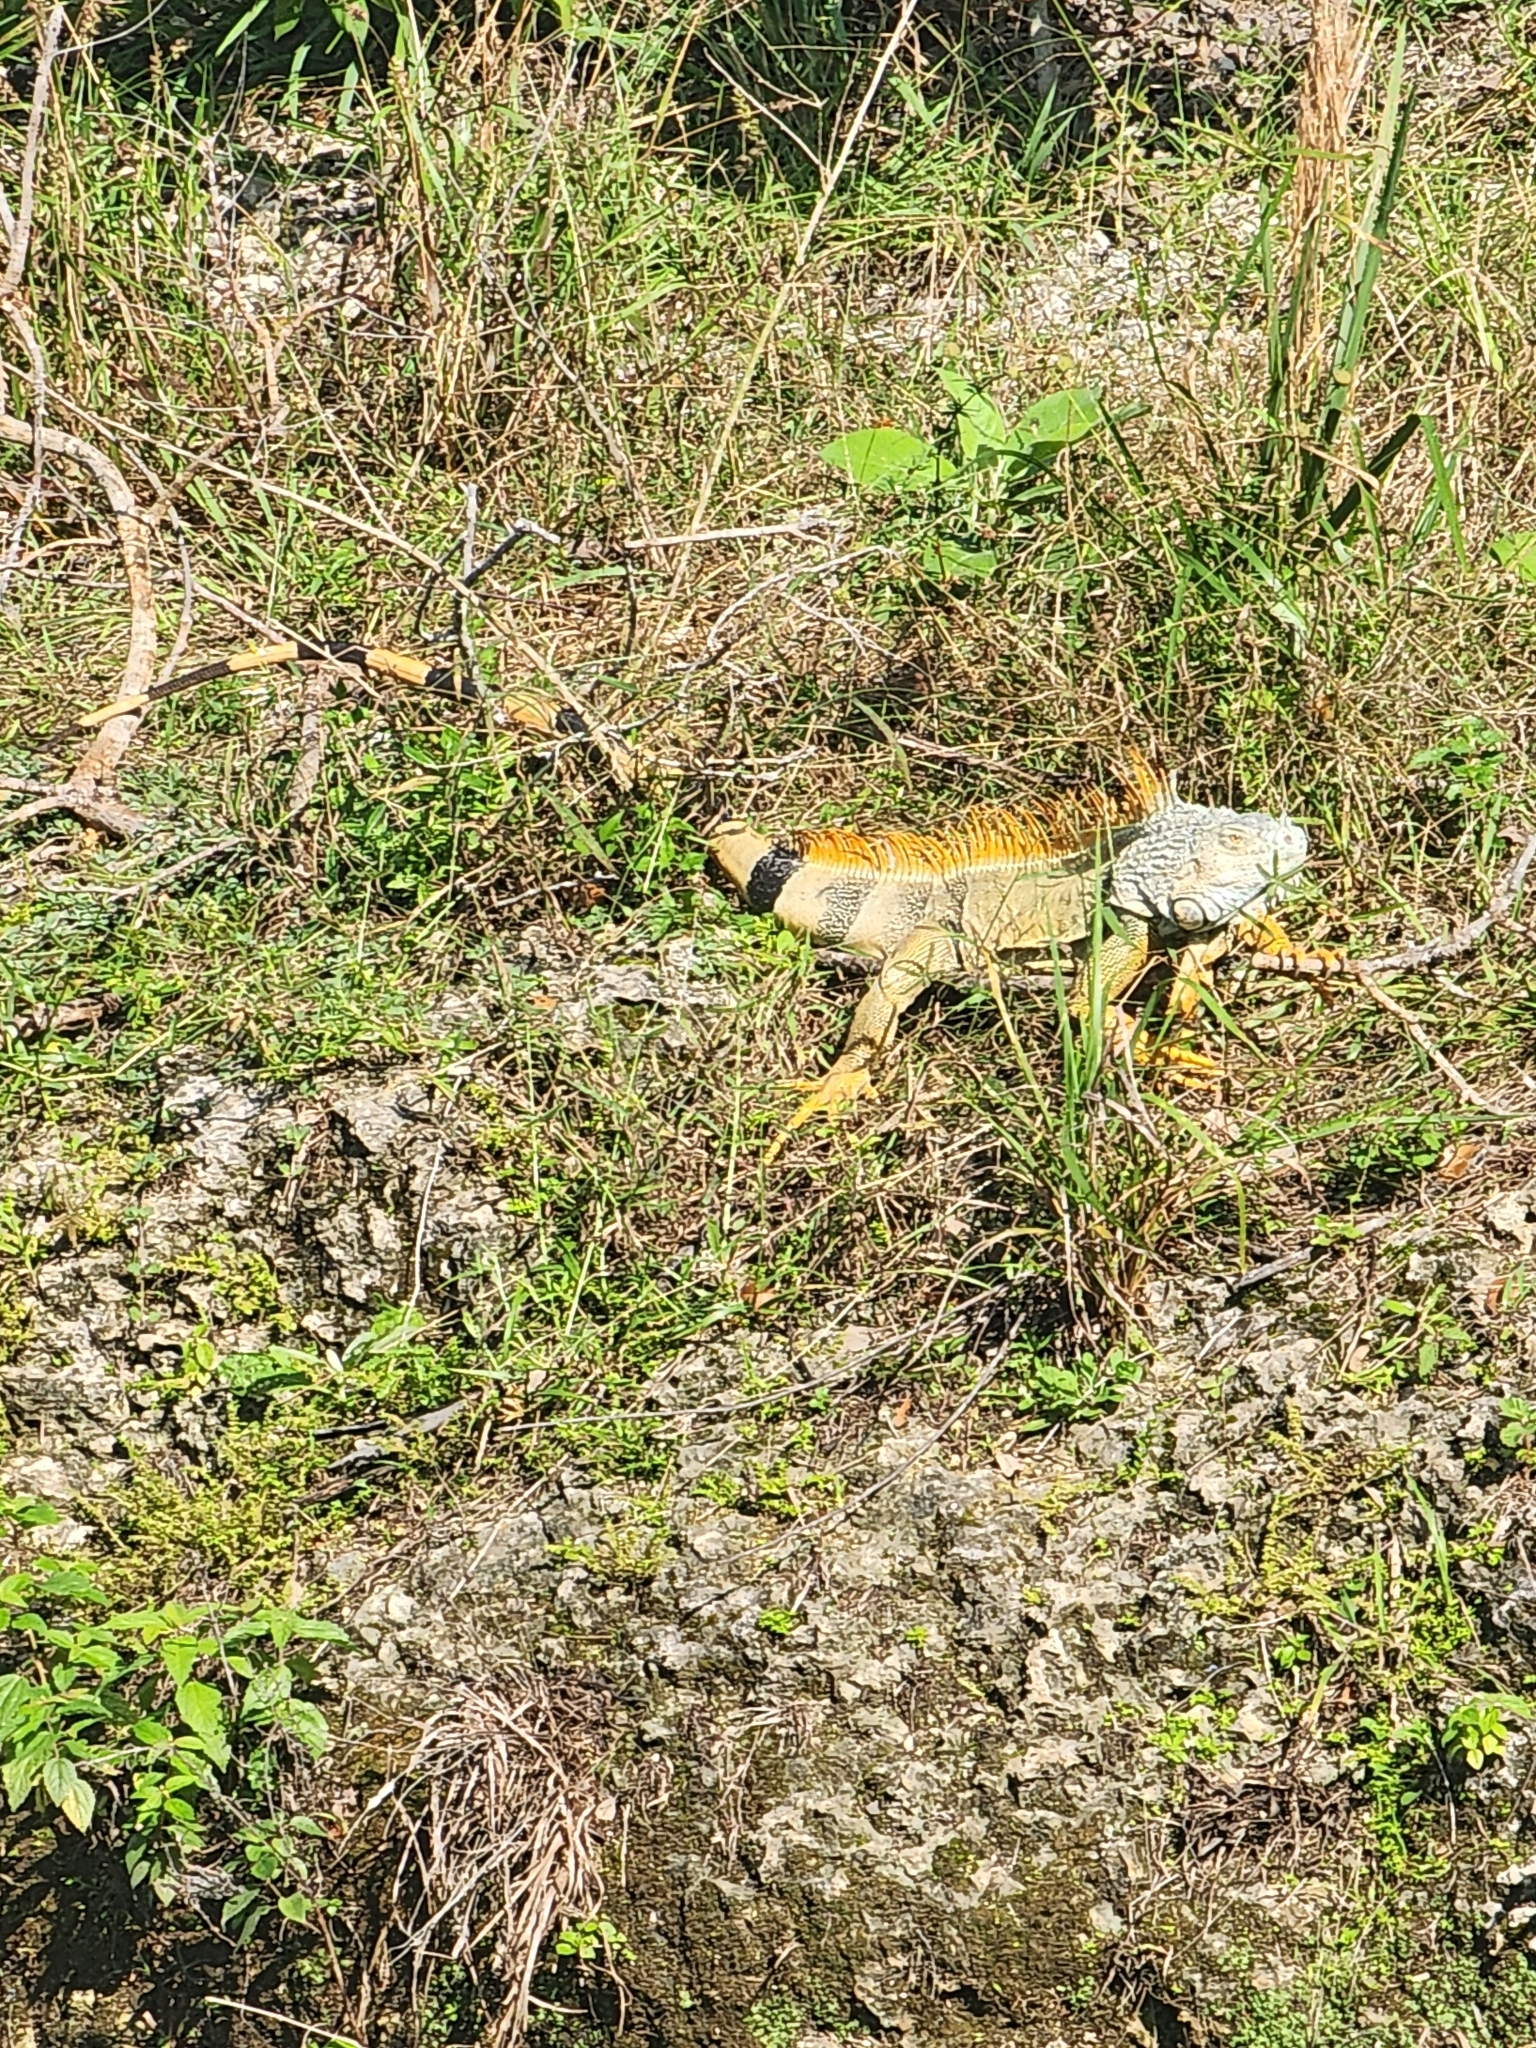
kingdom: Animalia
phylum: Chordata
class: Squamata
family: Iguanidae
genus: Iguana
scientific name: Iguana iguana
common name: Green iguana
